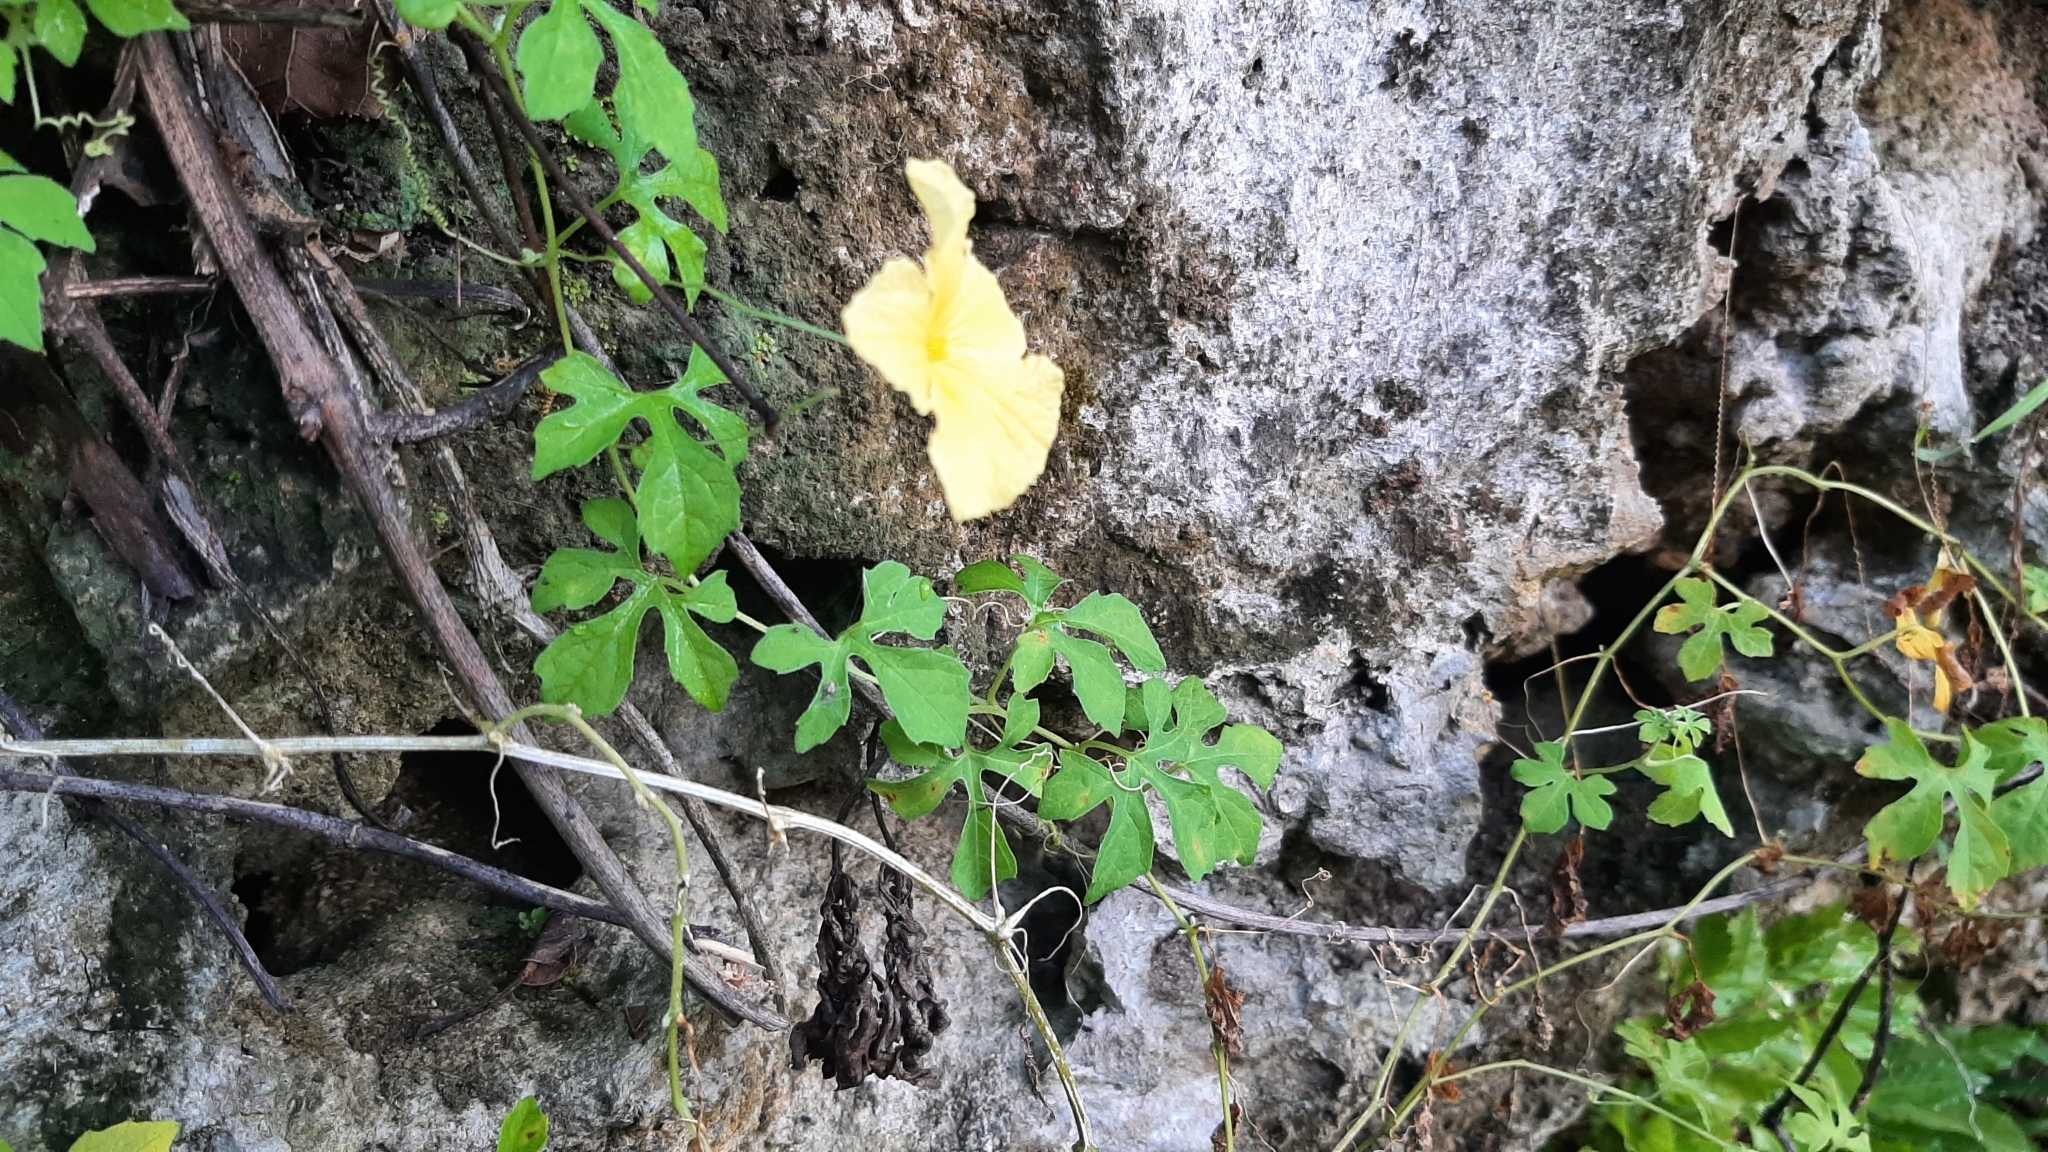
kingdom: Plantae
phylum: Tracheophyta
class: Magnoliopsida
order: Cucurbitales
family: Cucurbitaceae
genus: Momordica
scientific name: Momordica charantia
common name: Balsampear
